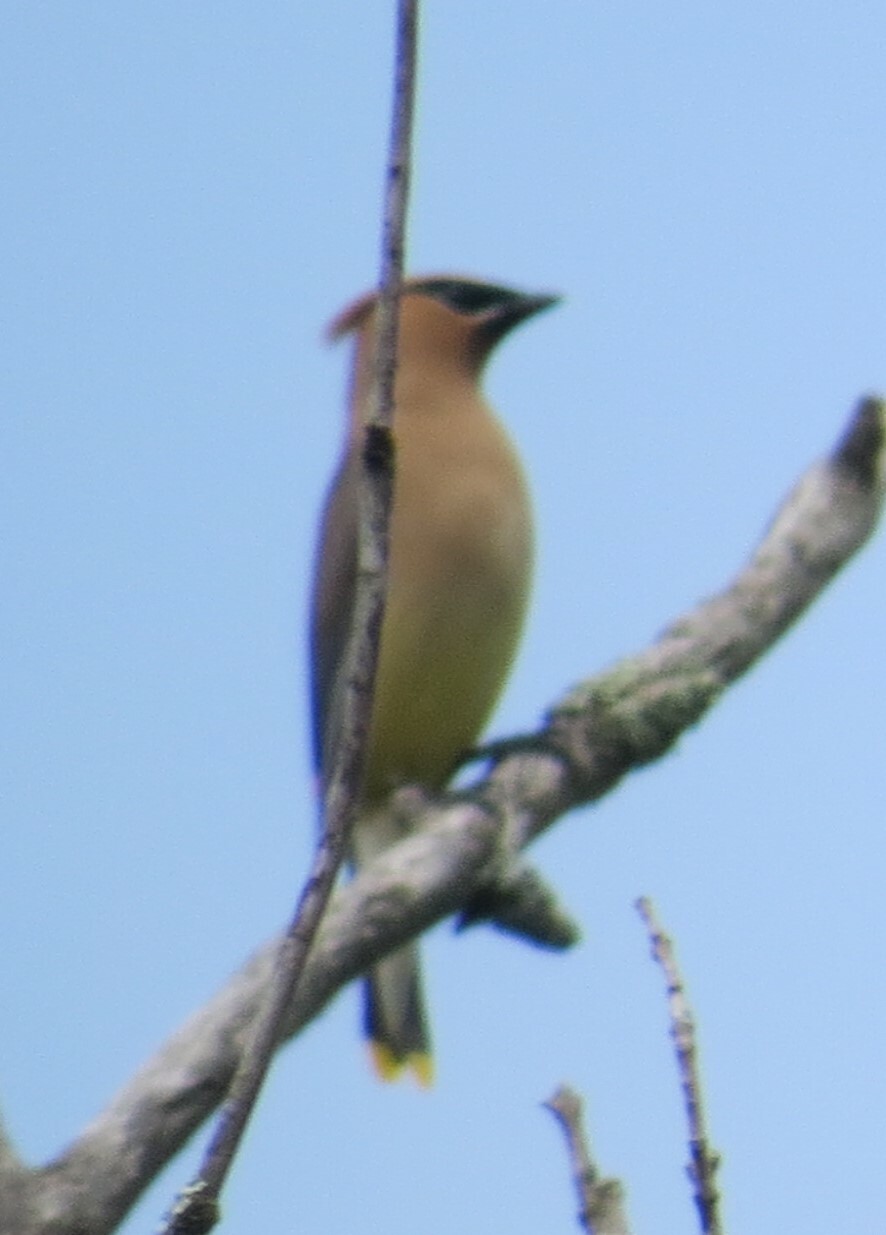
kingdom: Animalia
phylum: Chordata
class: Aves
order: Passeriformes
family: Bombycillidae
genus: Bombycilla
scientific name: Bombycilla cedrorum
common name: Cedar waxwing
